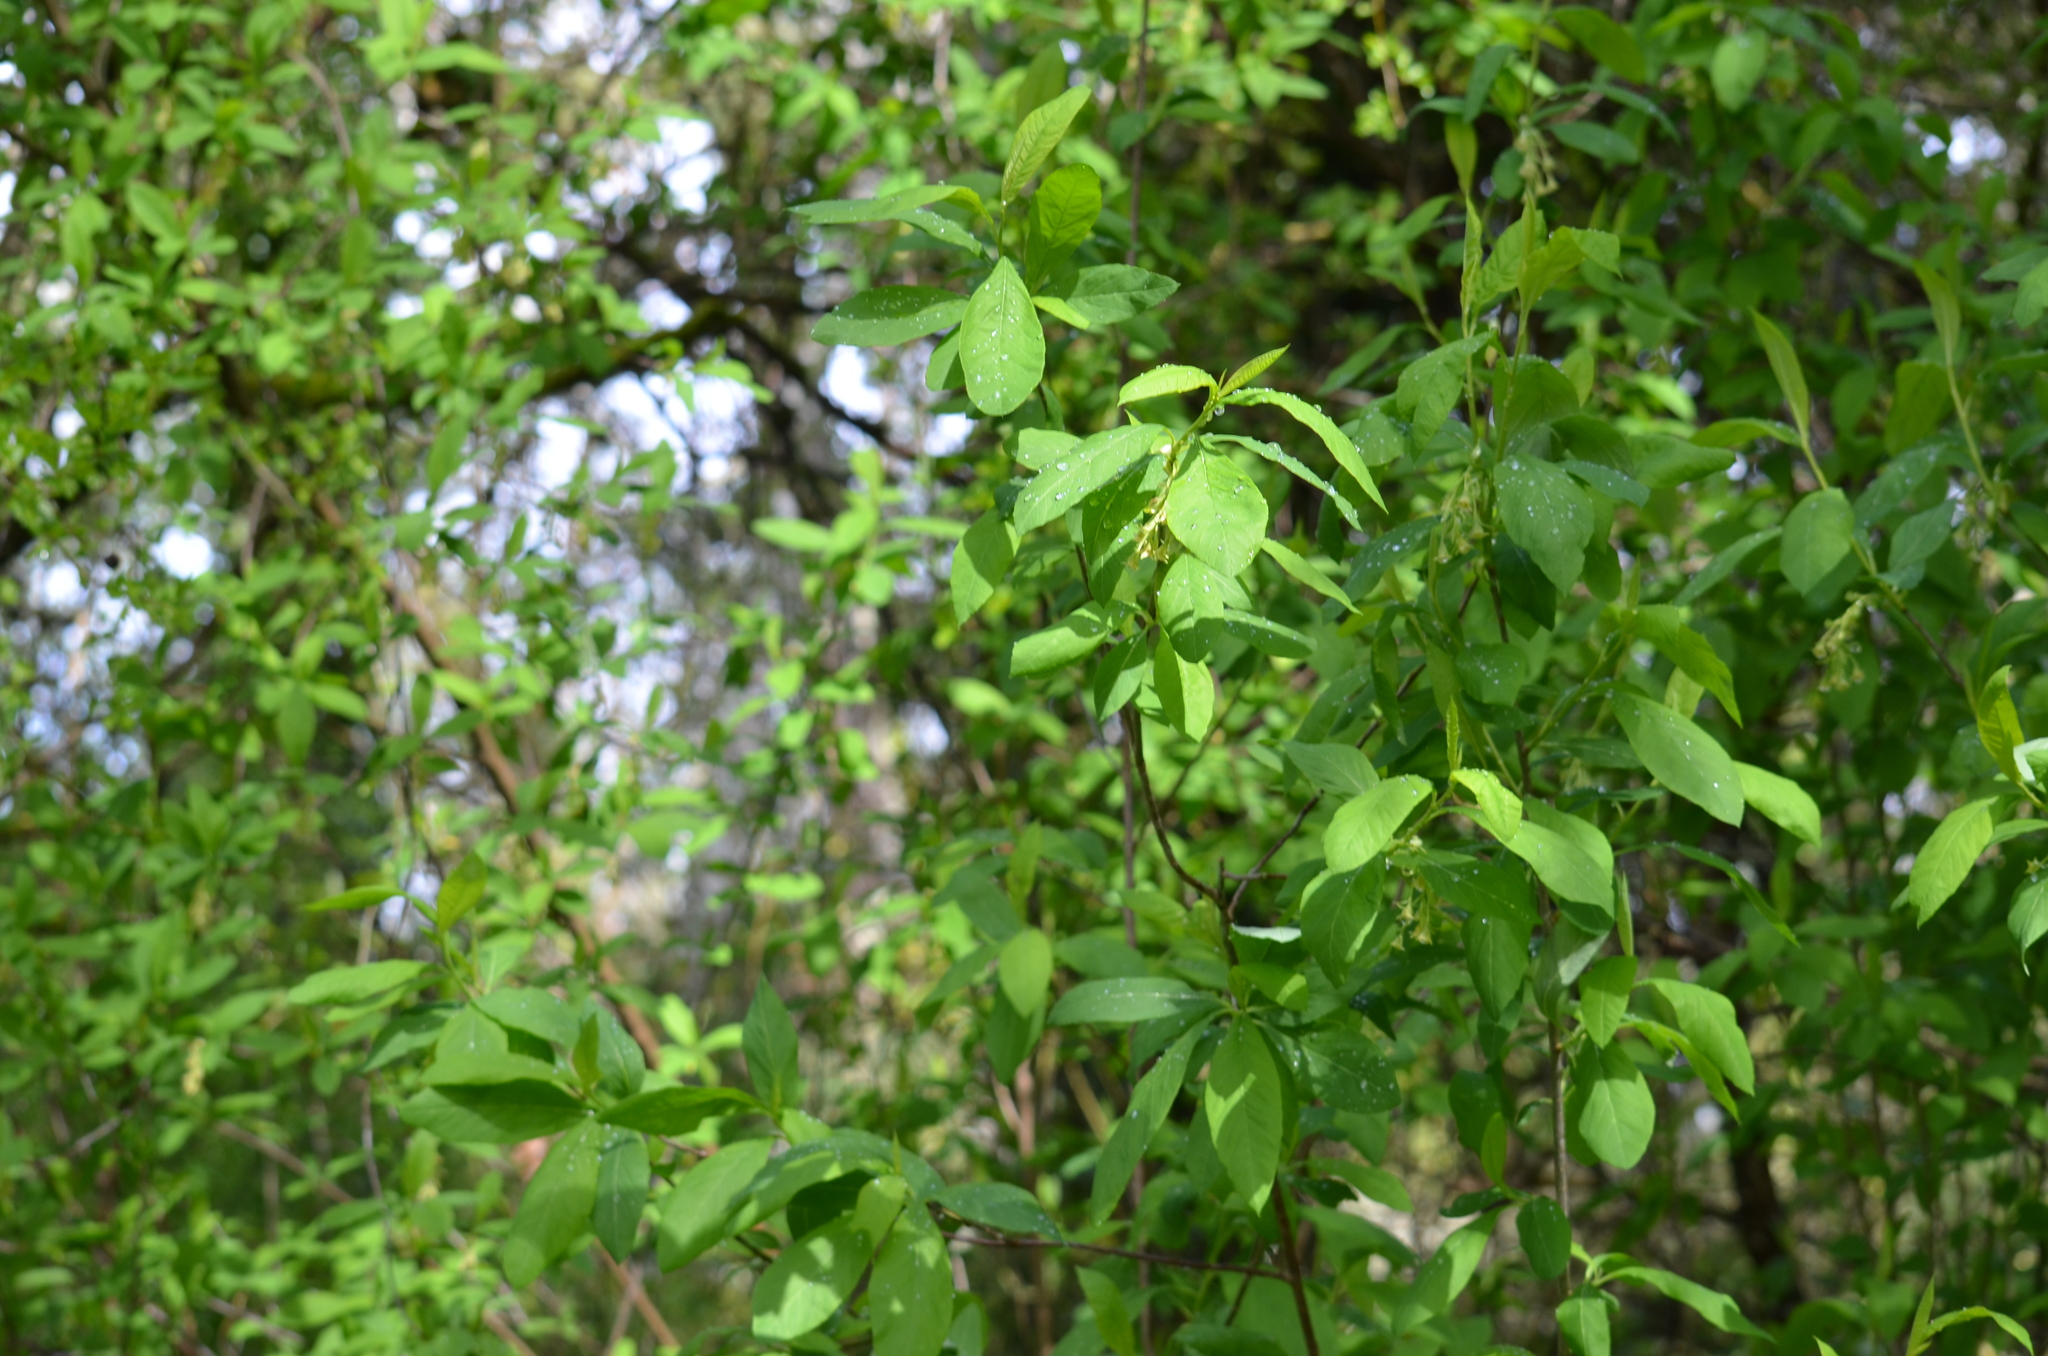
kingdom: Plantae
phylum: Tracheophyta
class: Magnoliopsida
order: Rosales
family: Rosaceae
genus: Oemleria
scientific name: Oemleria cerasiformis
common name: Osoberry
